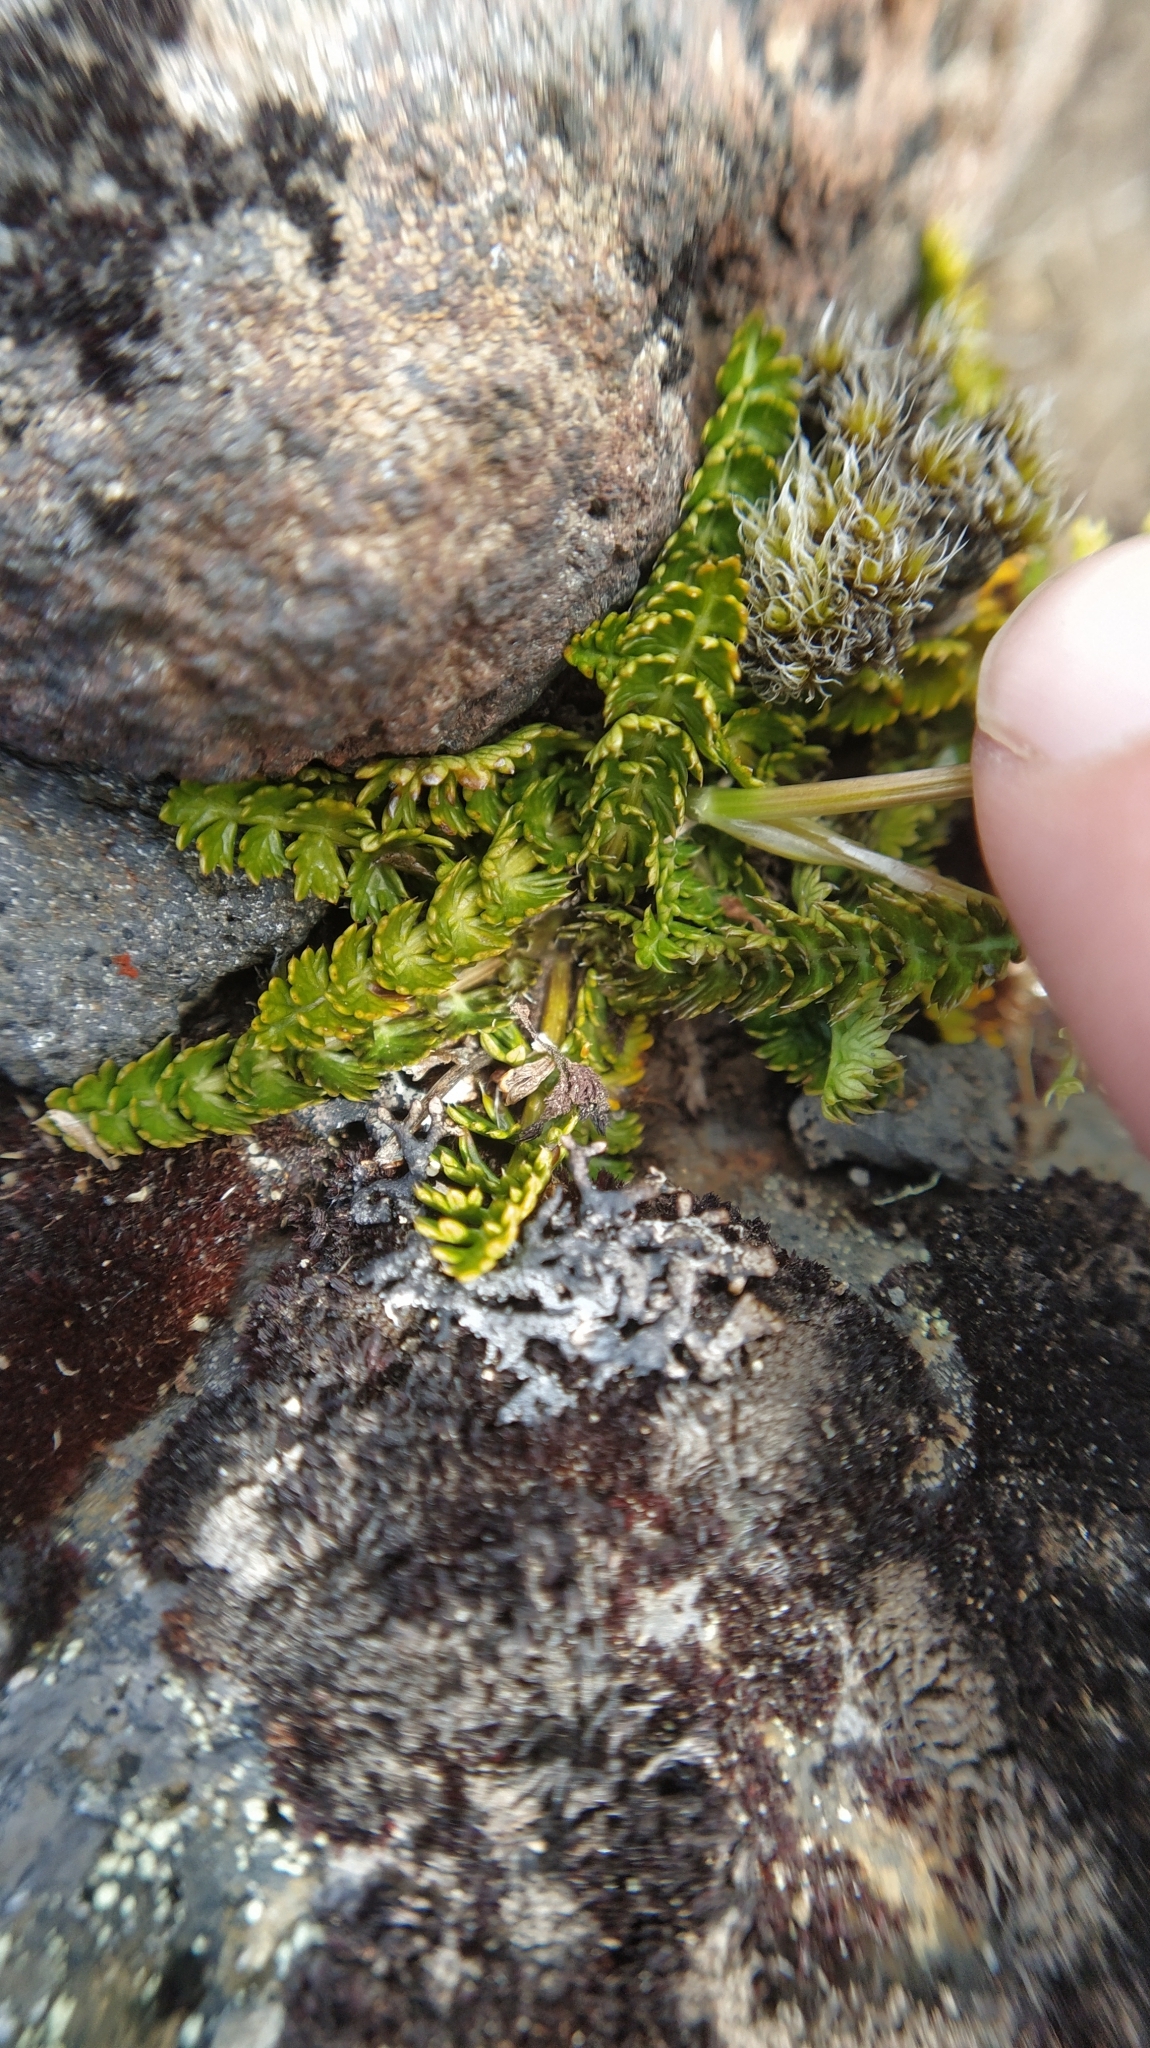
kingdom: Plantae
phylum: Tracheophyta
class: Magnoliopsida
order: Apiales
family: Apiaceae
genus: Anisotome
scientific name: Anisotome aromatica
